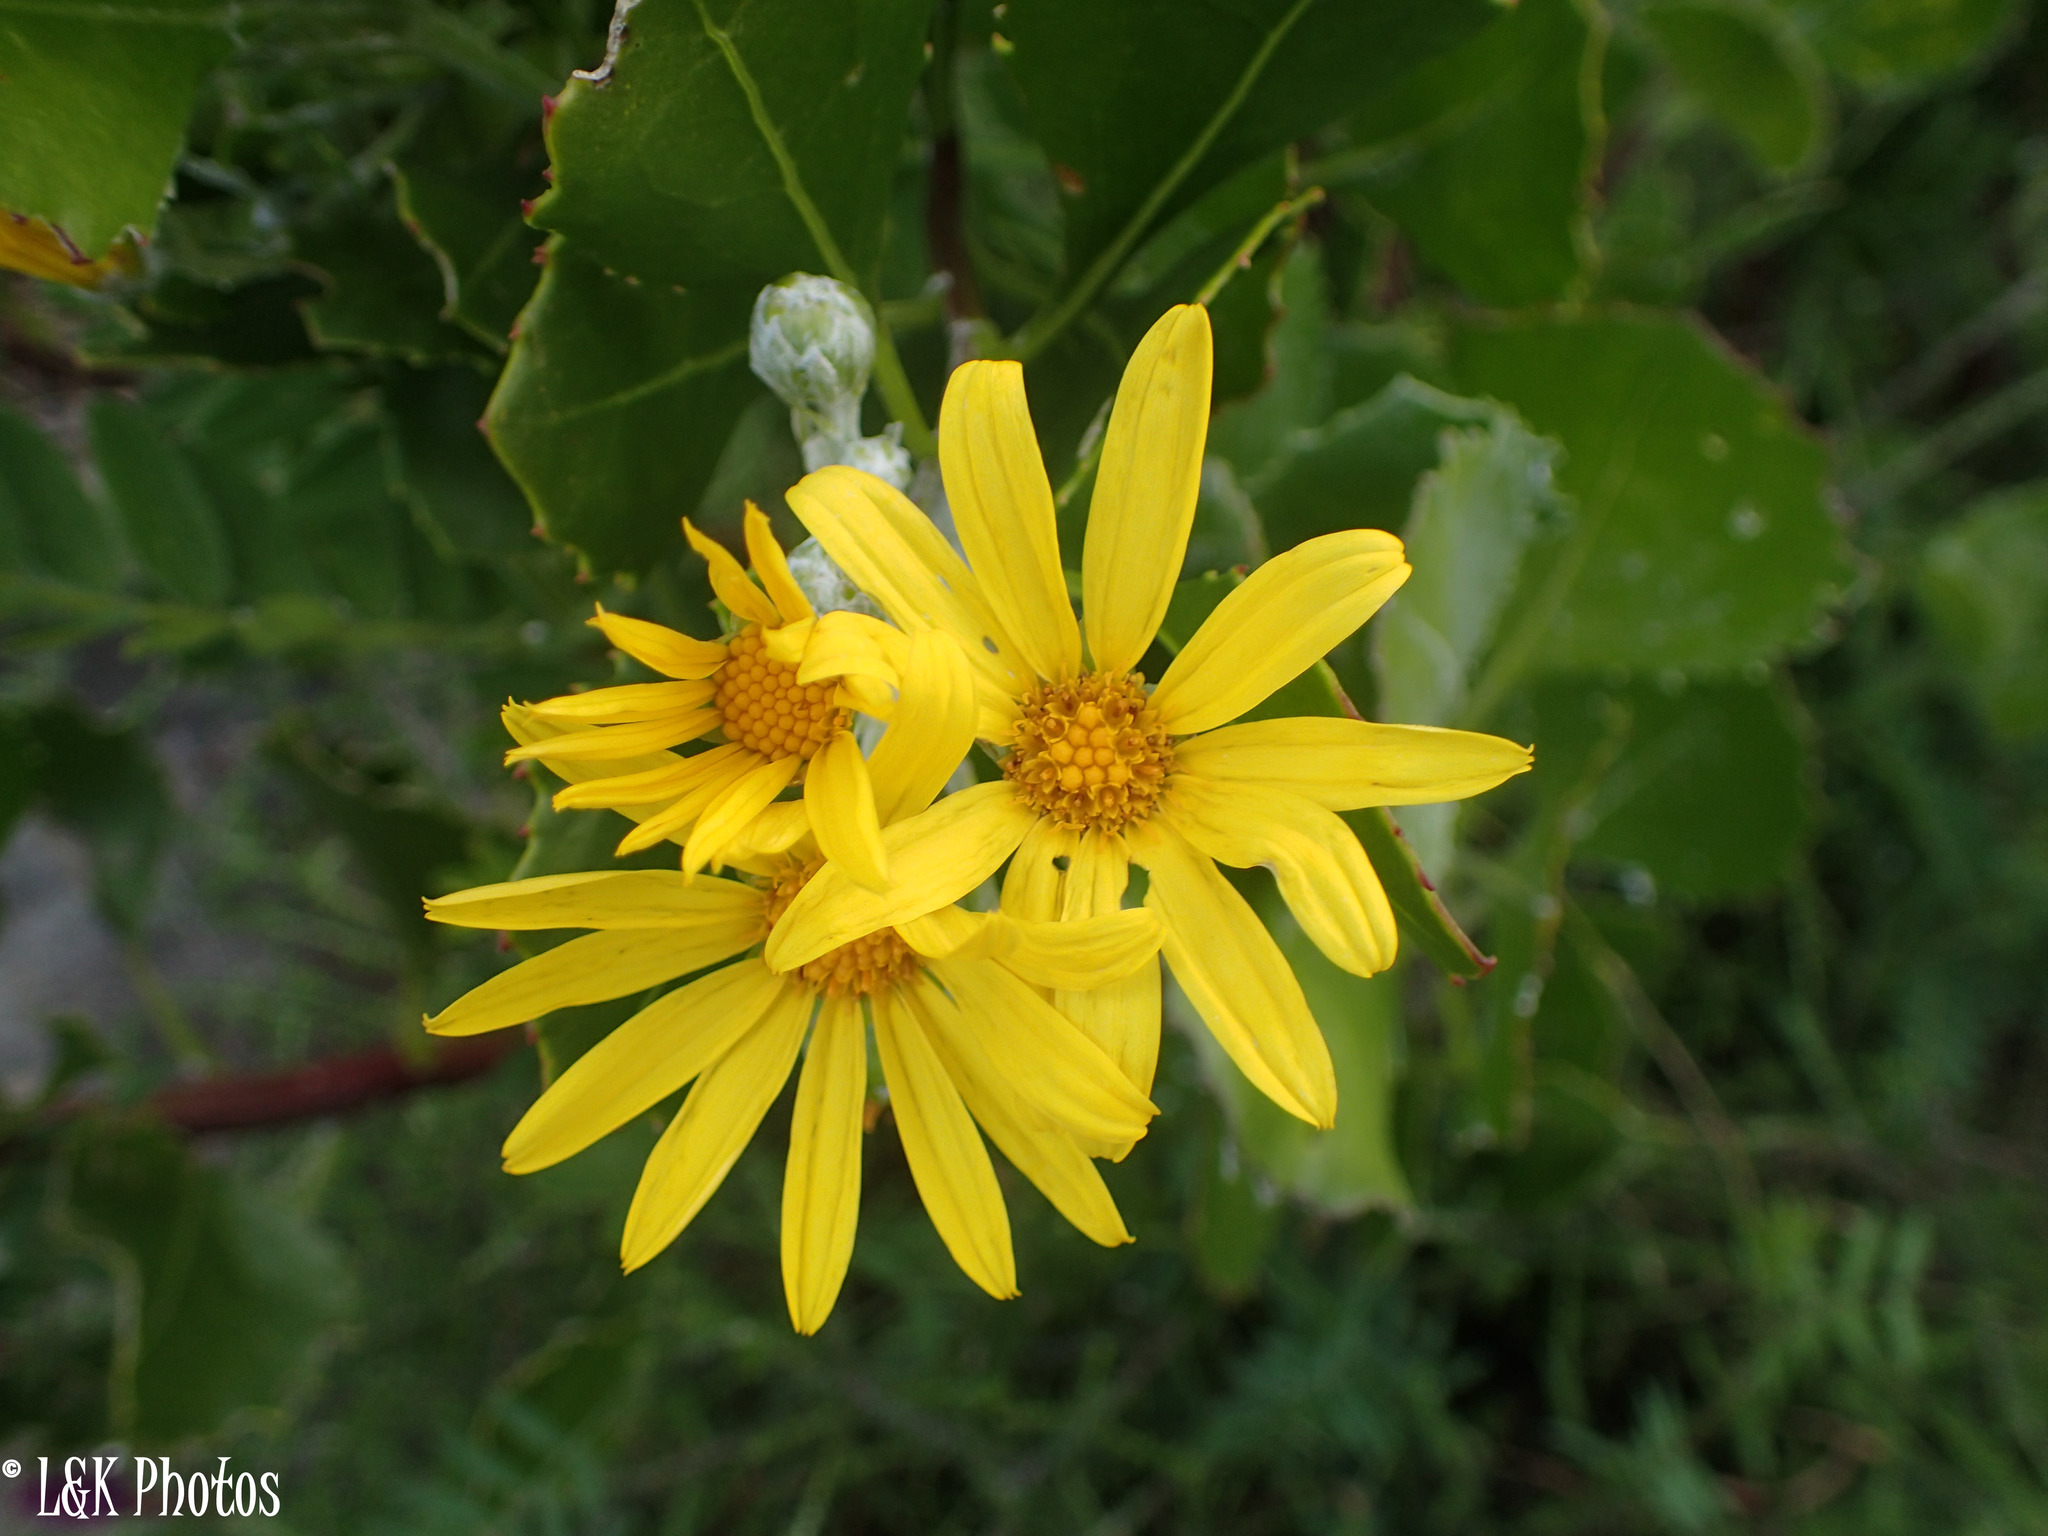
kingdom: Plantae
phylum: Tracheophyta
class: Magnoliopsida
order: Asterales
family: Asteraceae
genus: Osteospermum
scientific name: Osteospermum moniliferum
